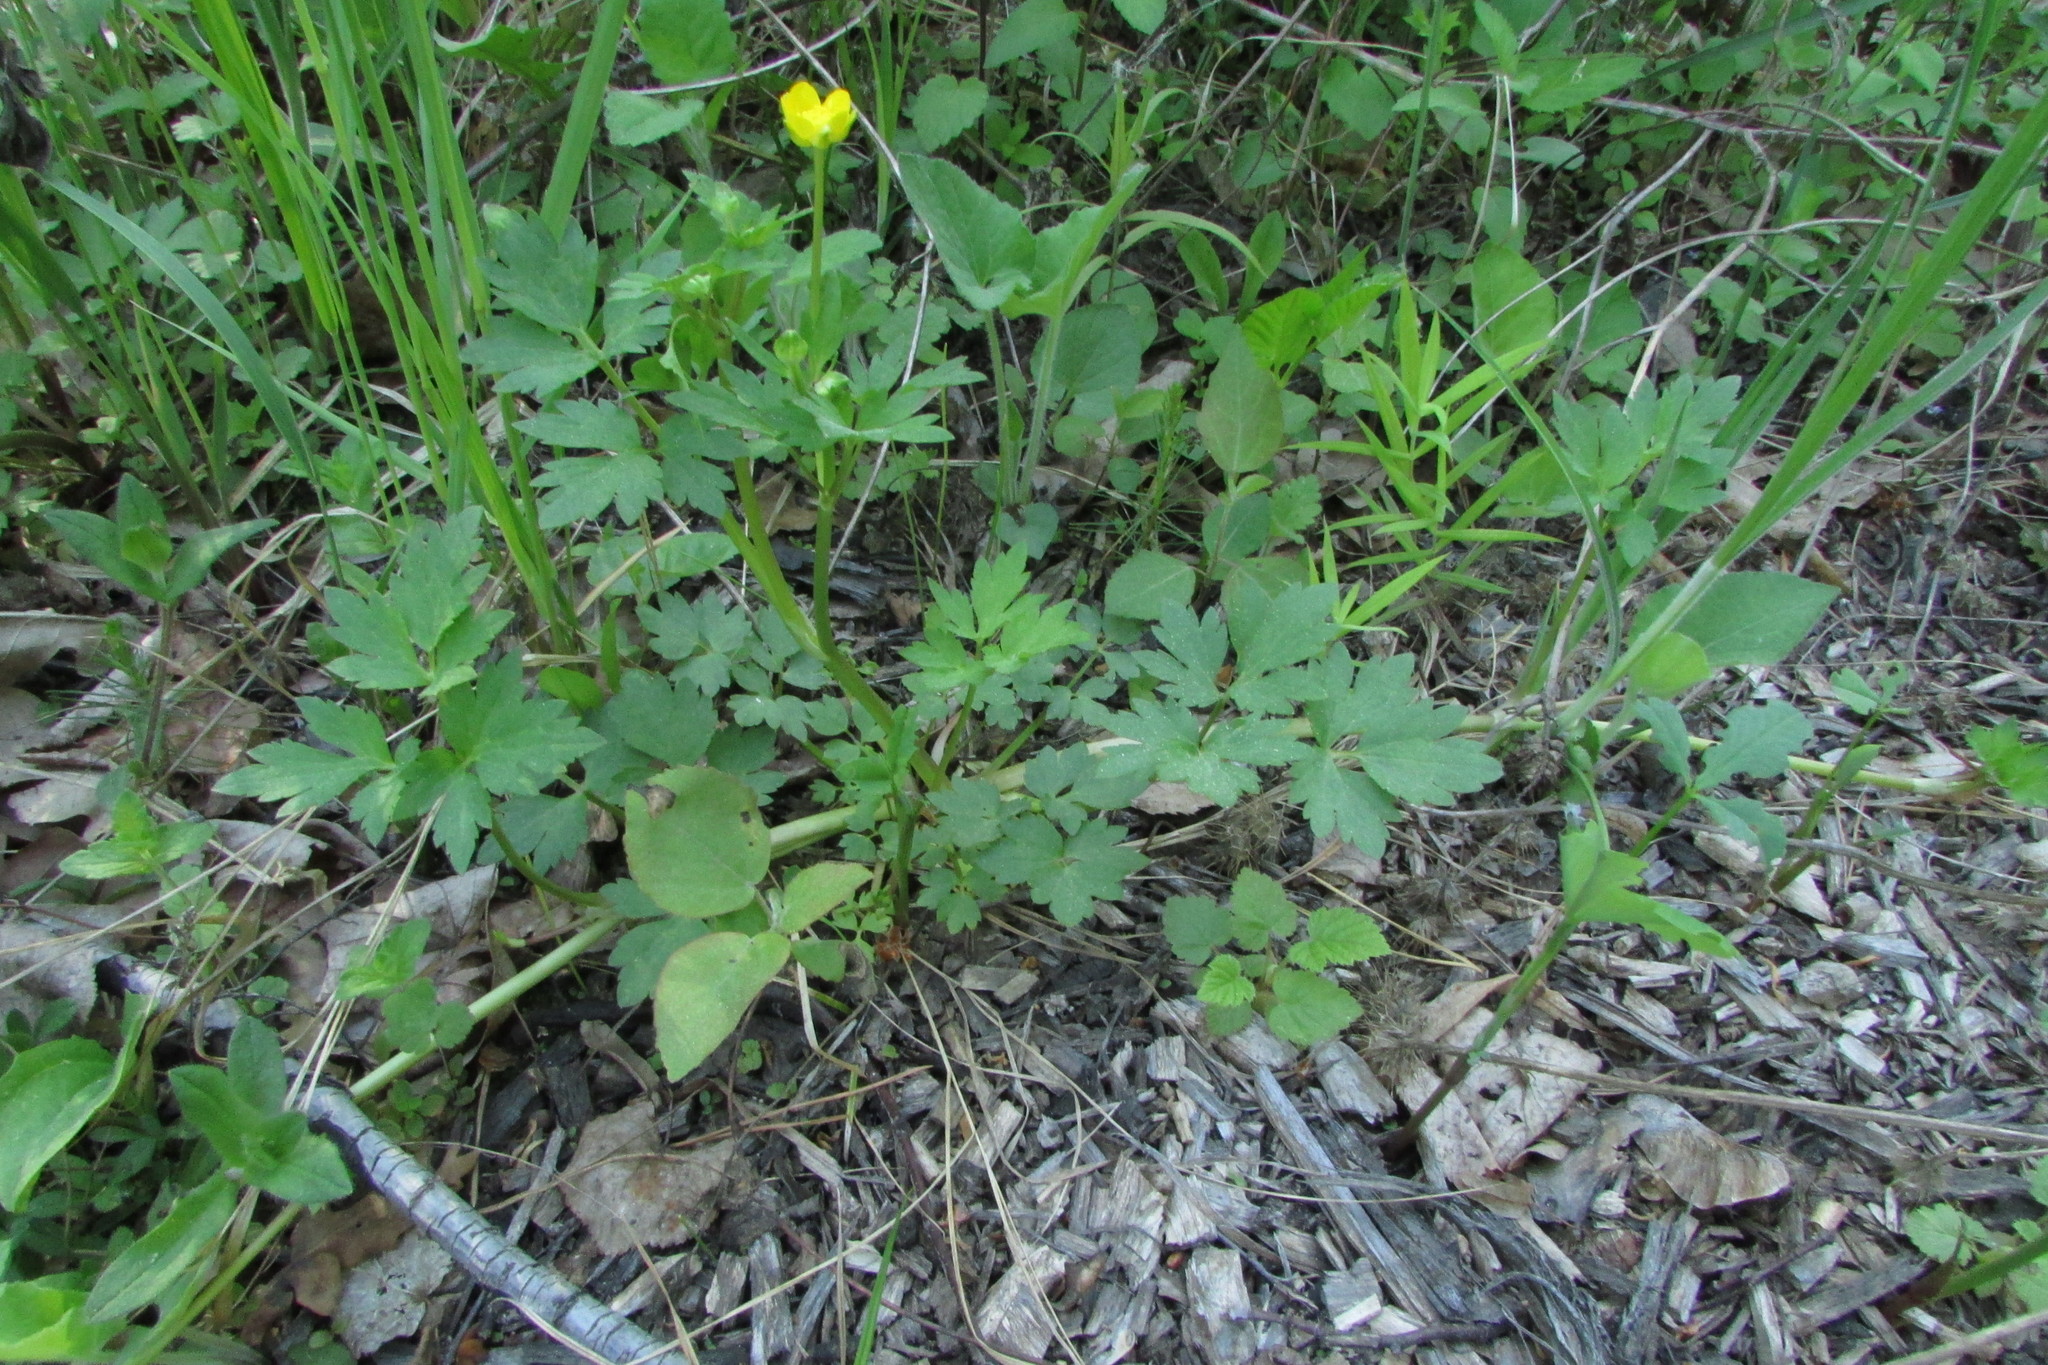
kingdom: Plantae
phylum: Tracheophyta
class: Magnoliopsida
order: Ranunculales
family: Ranunculaceae
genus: Ranunculus
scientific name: Ranunculus repens
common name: Creeping buttercup
